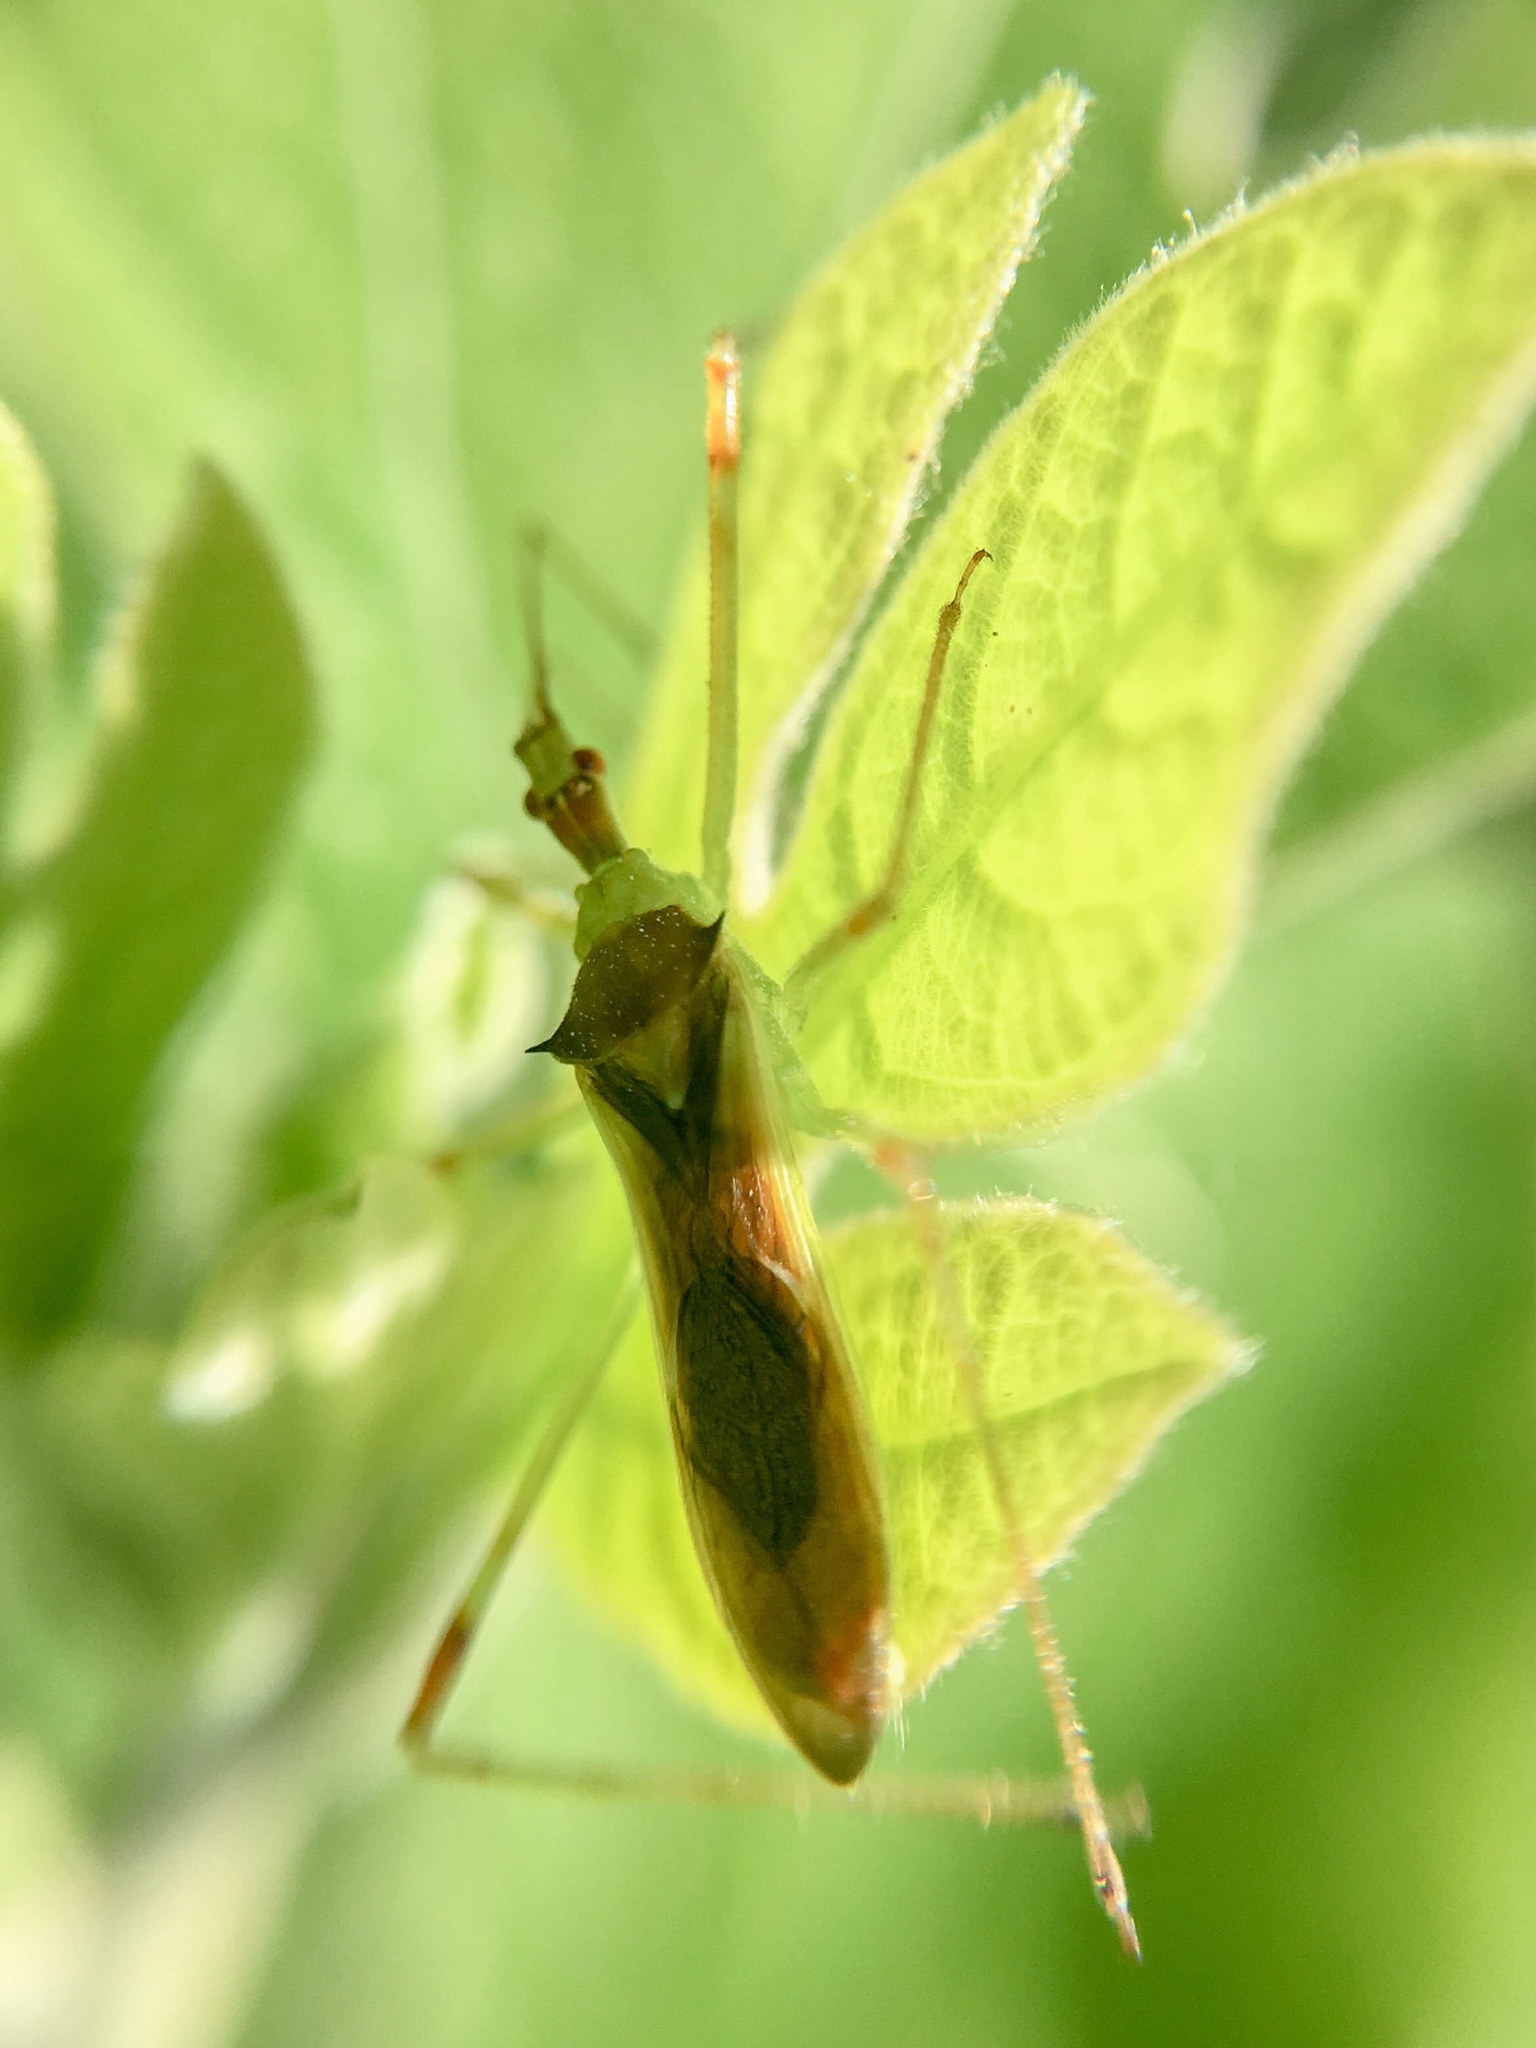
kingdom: Animalia
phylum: Arthropoda
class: Insecta
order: Hemiptera
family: Reduviidae
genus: Zelus
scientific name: Zelus luridus
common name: Pale green assassin bug
